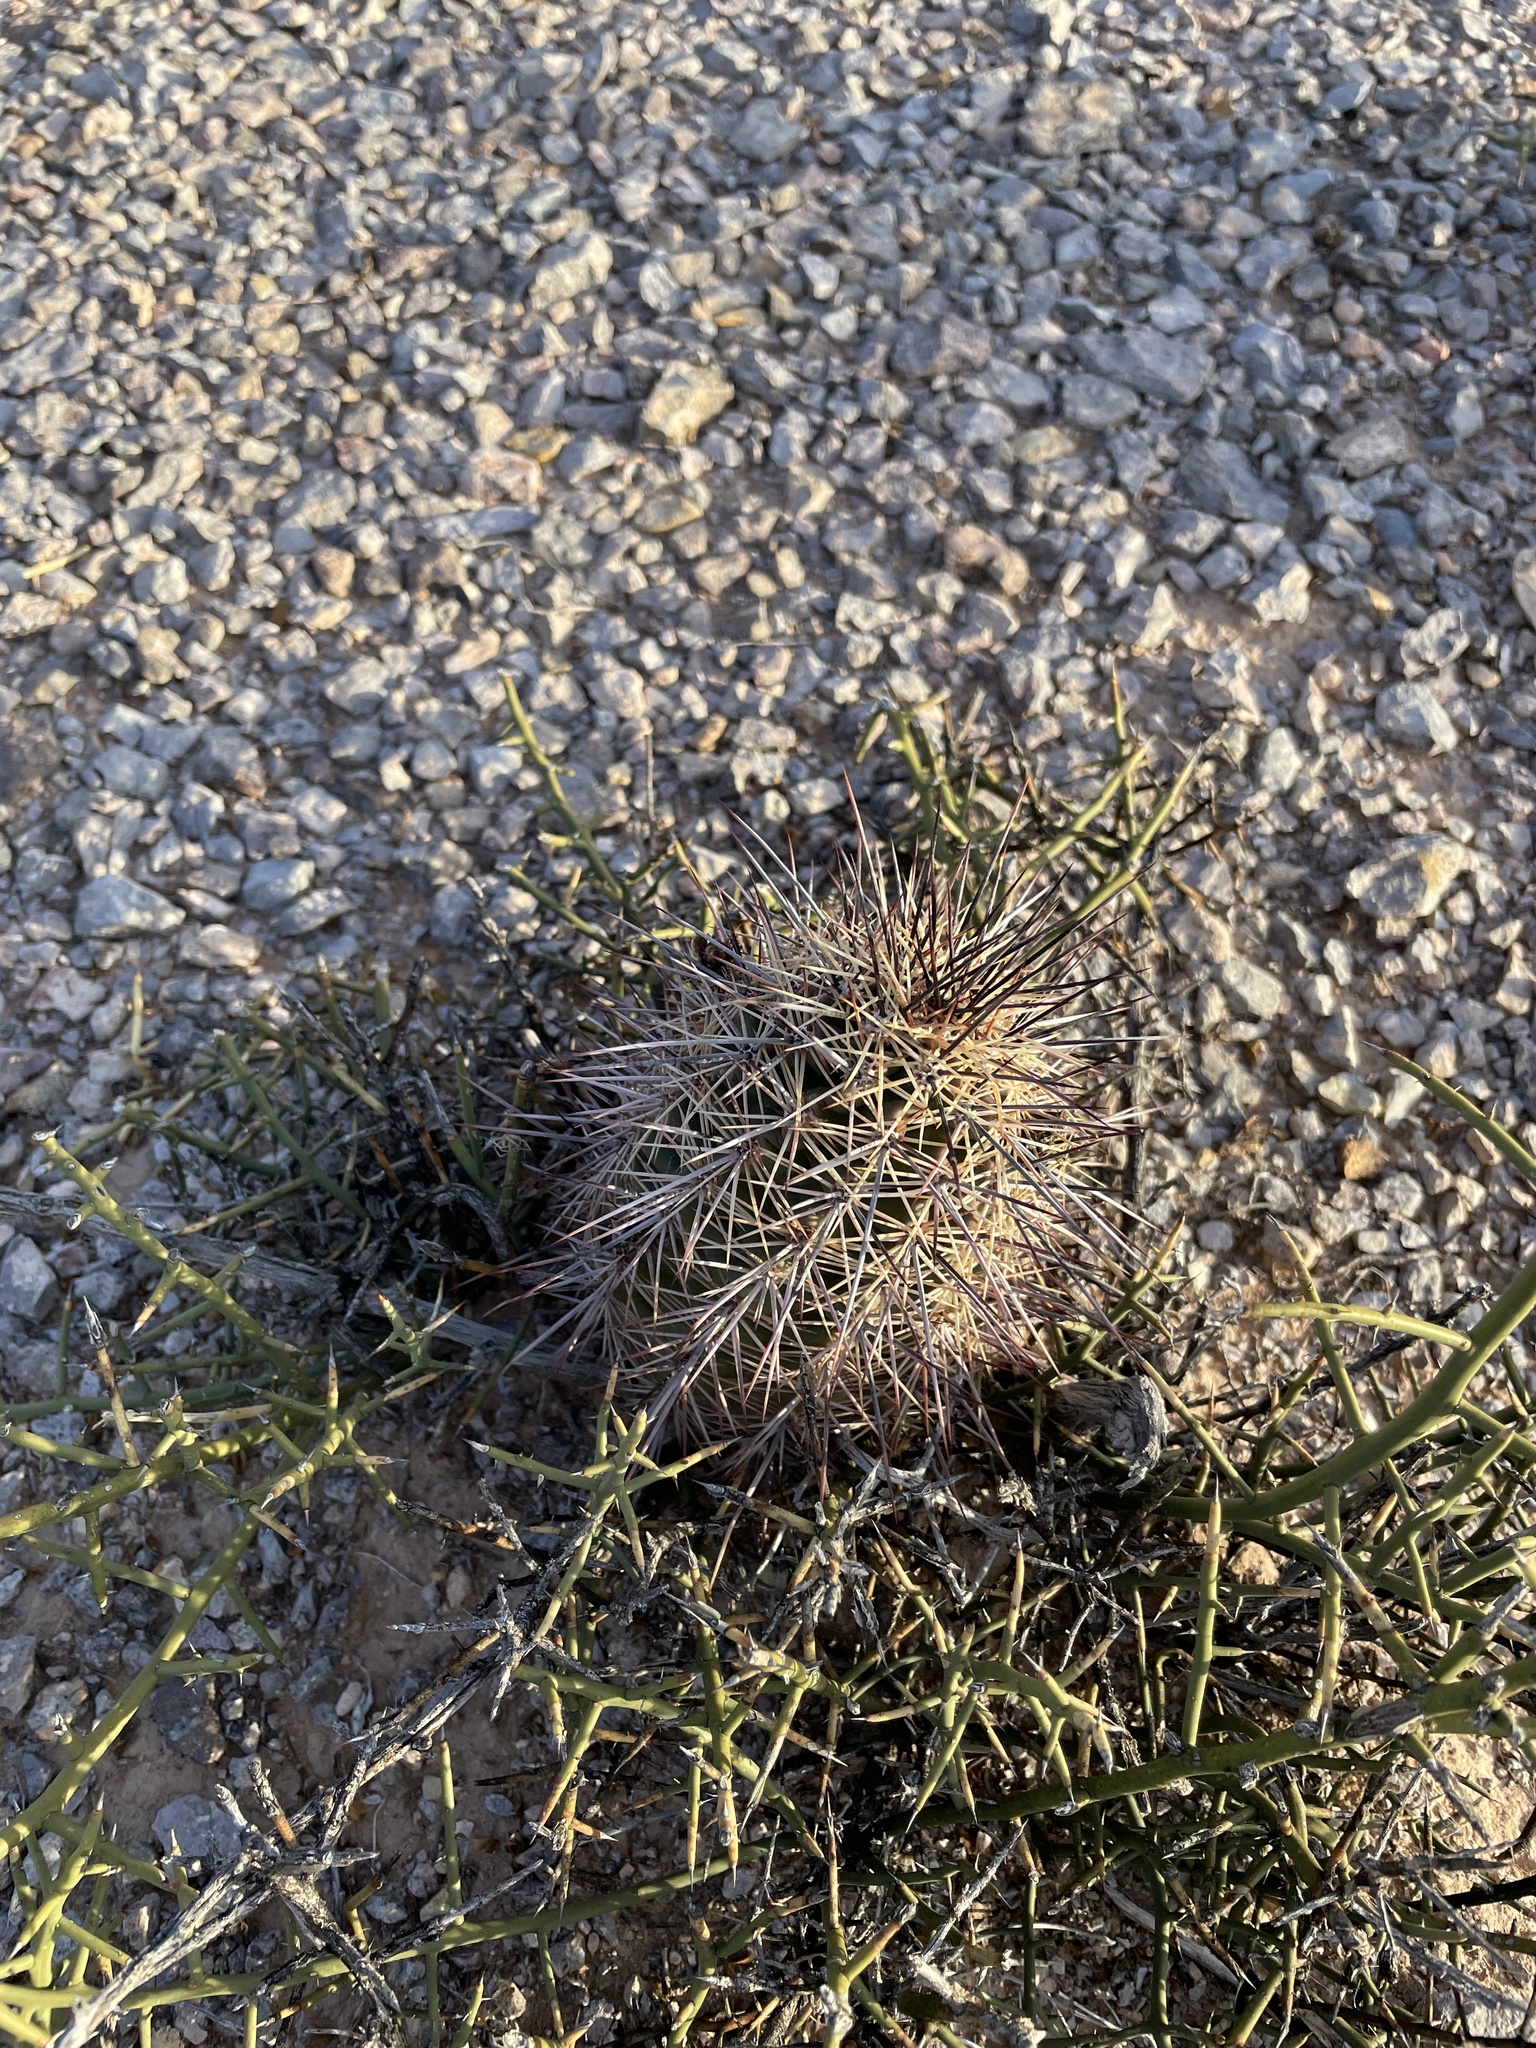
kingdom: Plantae
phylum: Tracheophyta
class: Magnoliopsida
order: Caryophyllales
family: Cactaceae
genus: Echinocereus
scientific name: Echinocereus coccineus
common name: Scarlet hedgehog cactus
